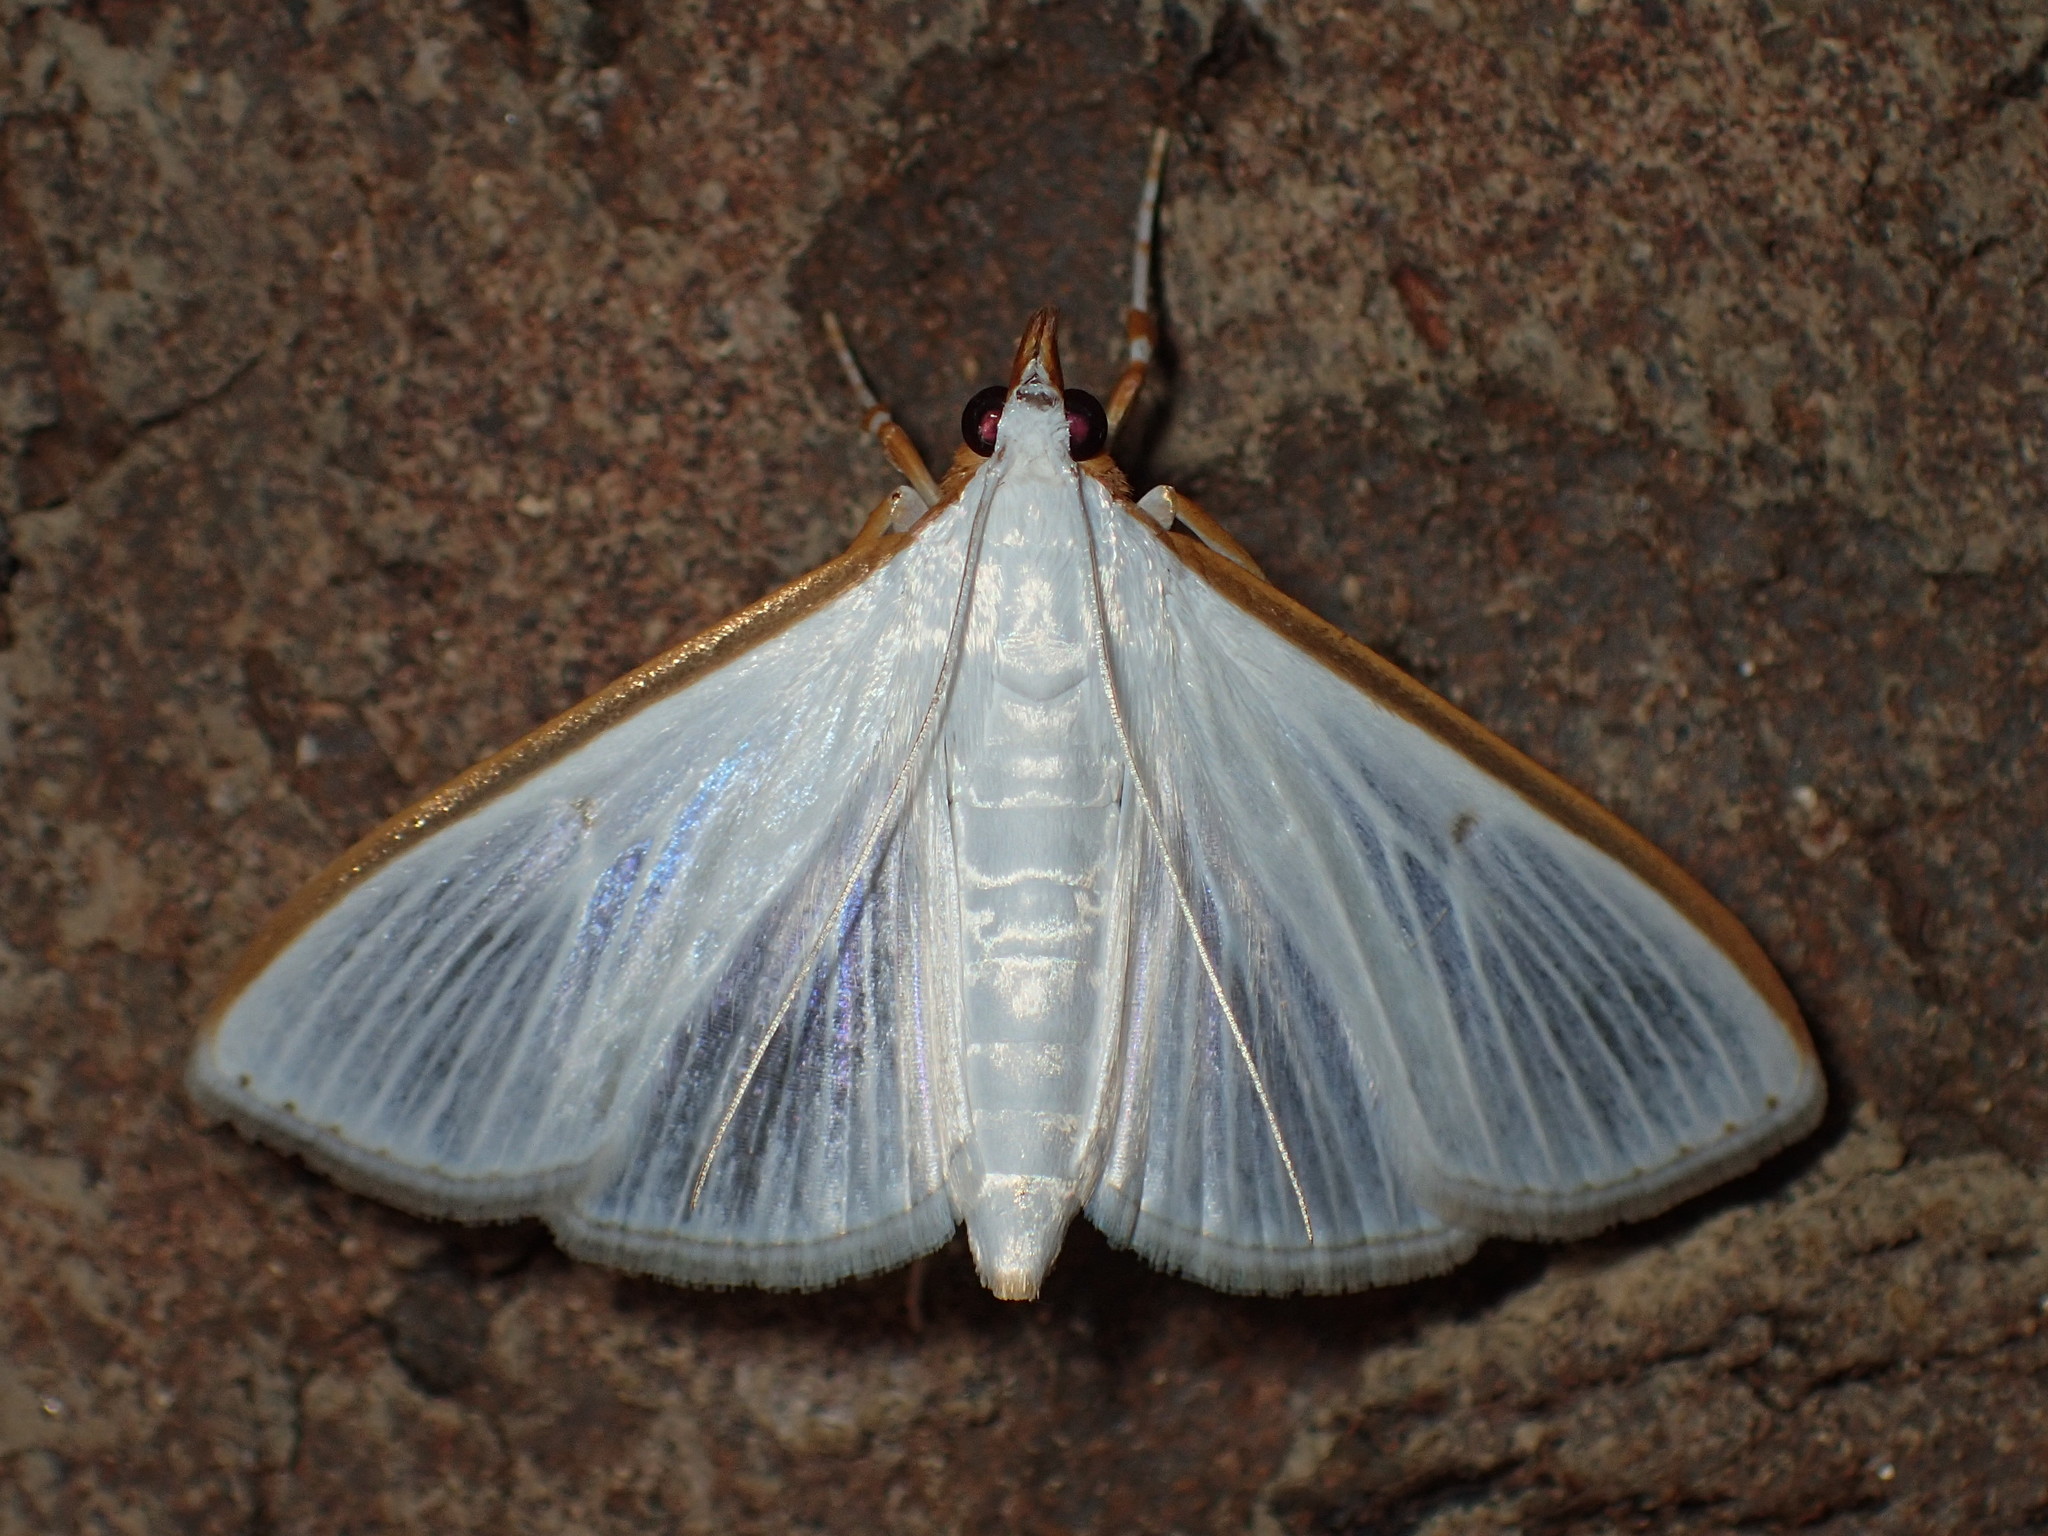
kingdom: Animalia
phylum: Arthropoda
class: Insecta
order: Lepidoptera
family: Crambidae
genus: Palpita
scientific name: Palpita kimballi
